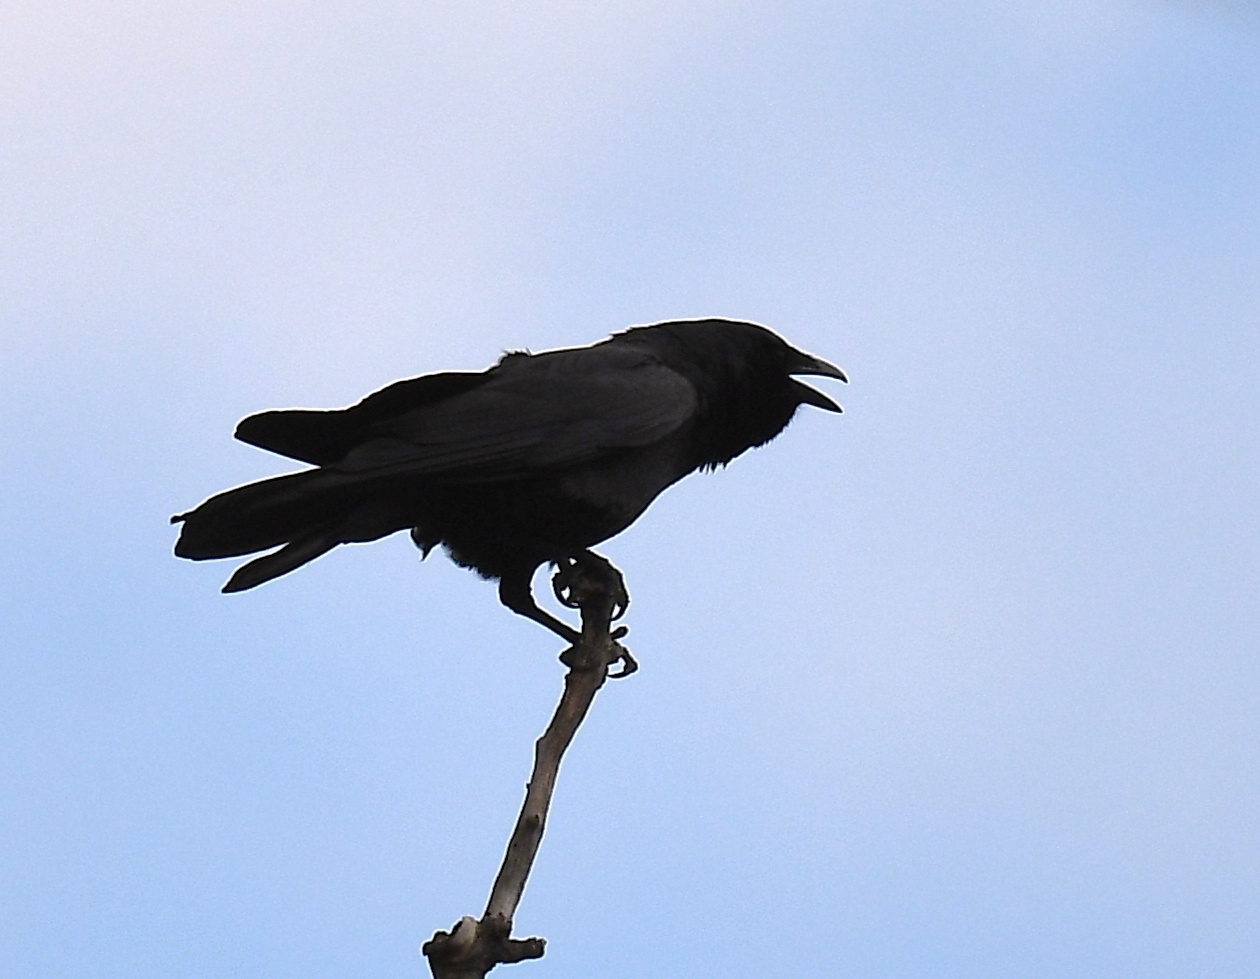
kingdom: Animalia
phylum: Chordata
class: Aves
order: Passeriformes
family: Corvidae
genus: Corvus
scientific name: Corvus ossifragus
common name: Fish crow
